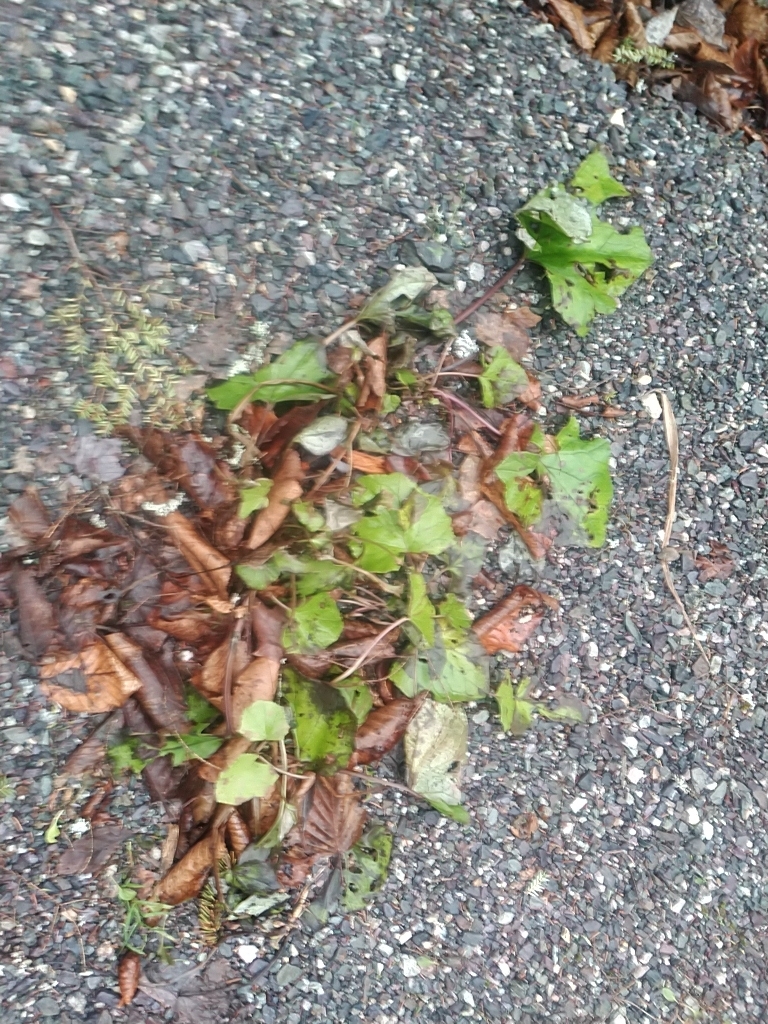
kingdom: Plantae
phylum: Tracheophyta
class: Magnoliopsida
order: Asterales
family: Asteraceae
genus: Tussilago
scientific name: Tussilago farfara
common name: Coltsfoot
